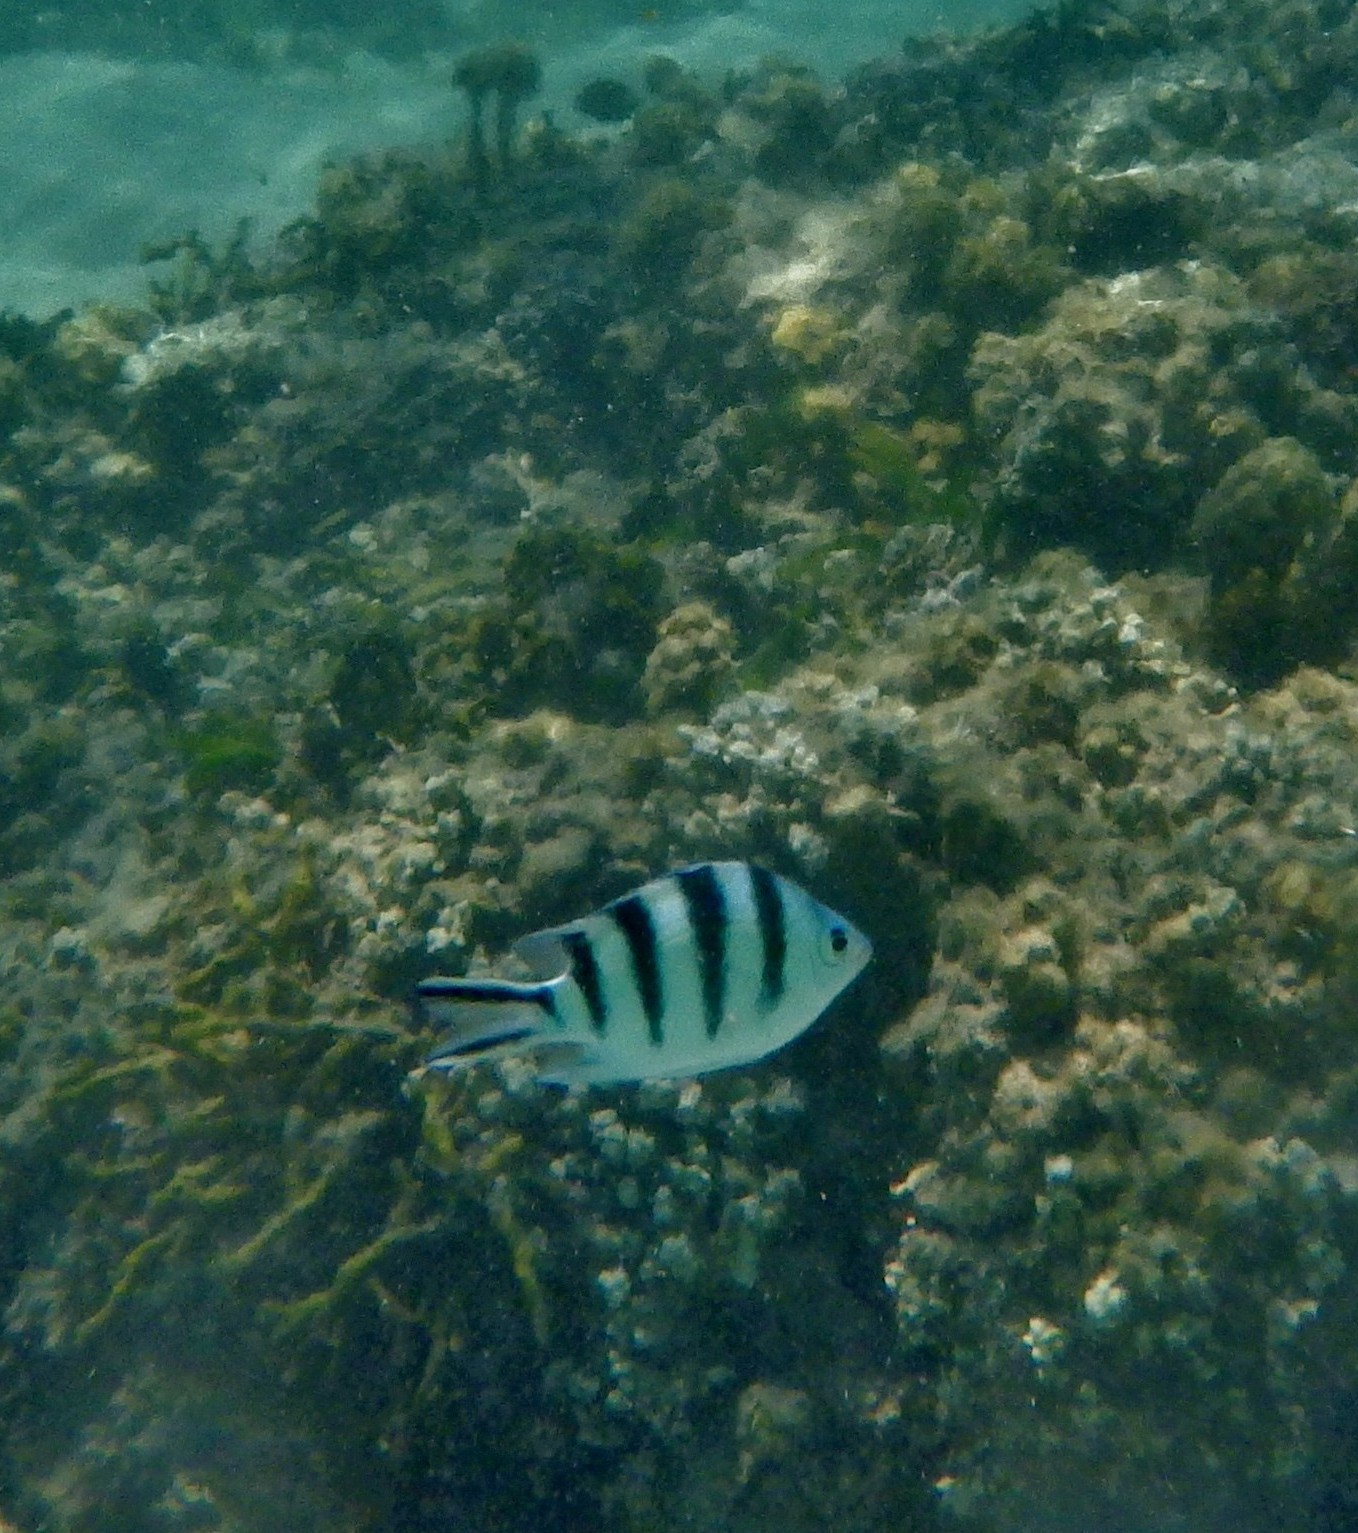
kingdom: Animalia
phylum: Chordata
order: Perciformes
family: Pomacentridae
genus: Abudefduf
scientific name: Abudefduf sexfasciatus
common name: Scissortail sergeant
